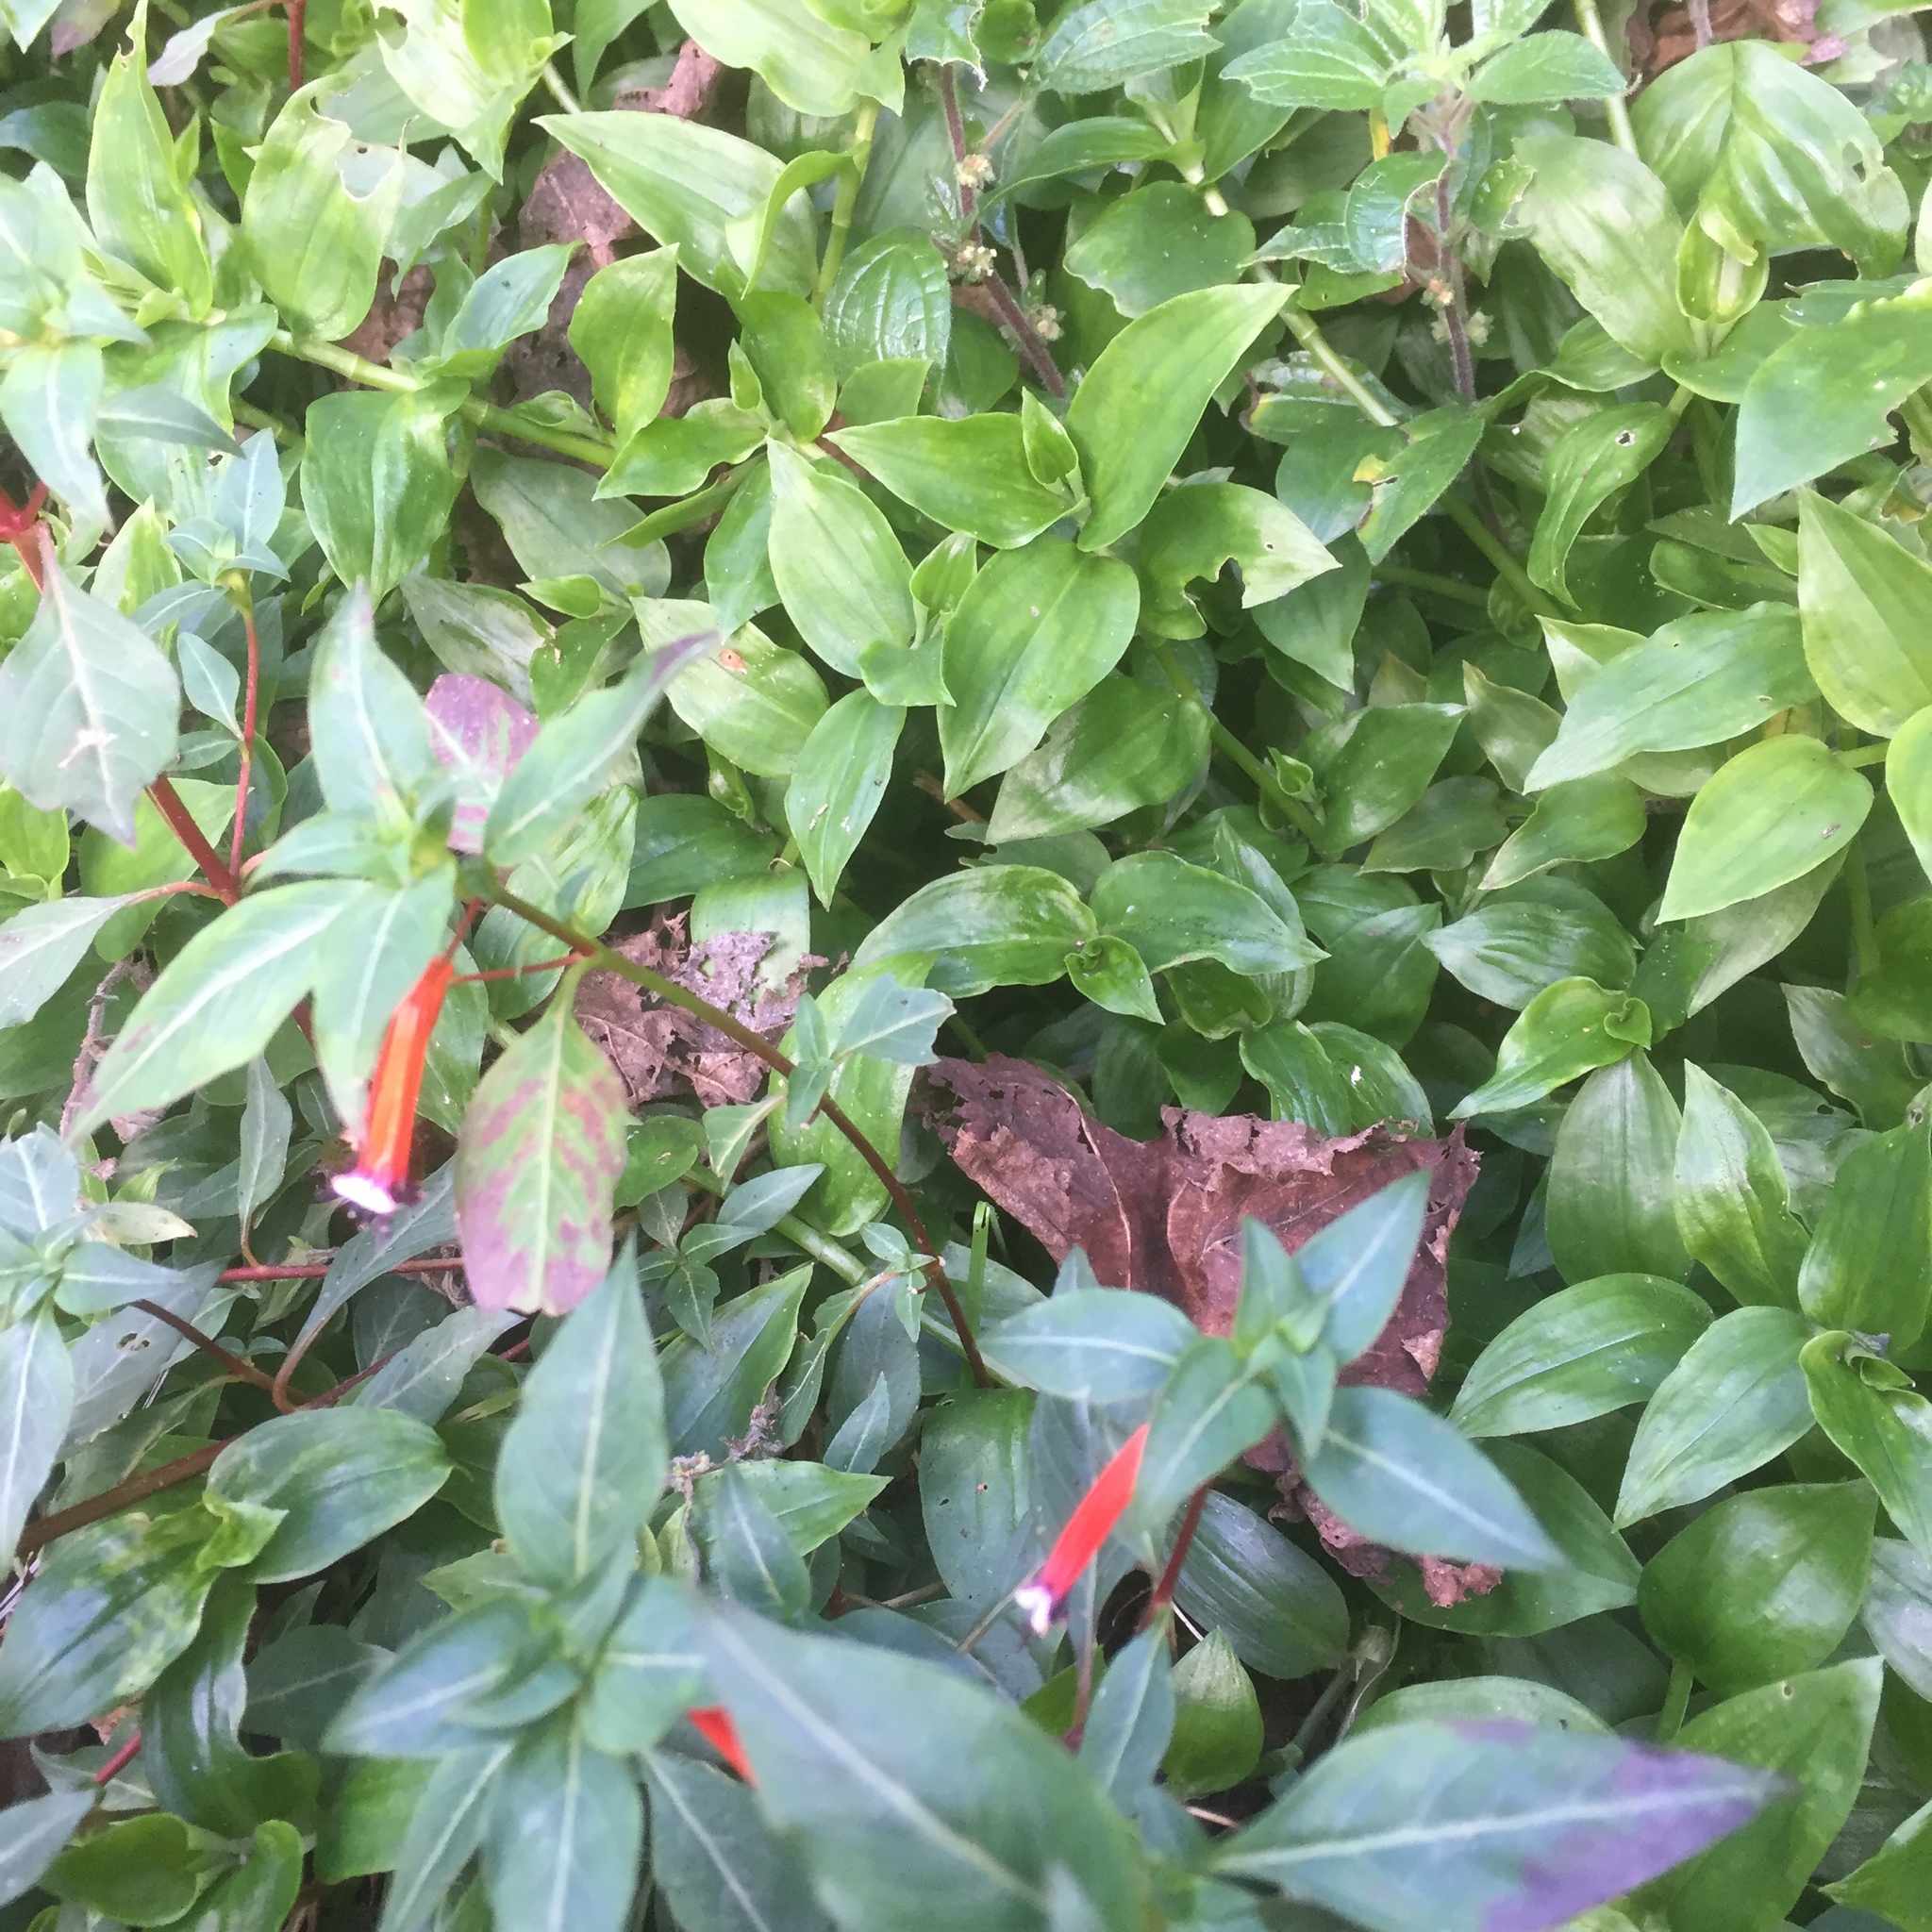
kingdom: Plantae
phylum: Tracheophyta
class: Liliopsida
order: Commelinales
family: Commelinaceae
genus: Tradescantia
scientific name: Tradescantia fluminensis
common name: Wandering-jew
